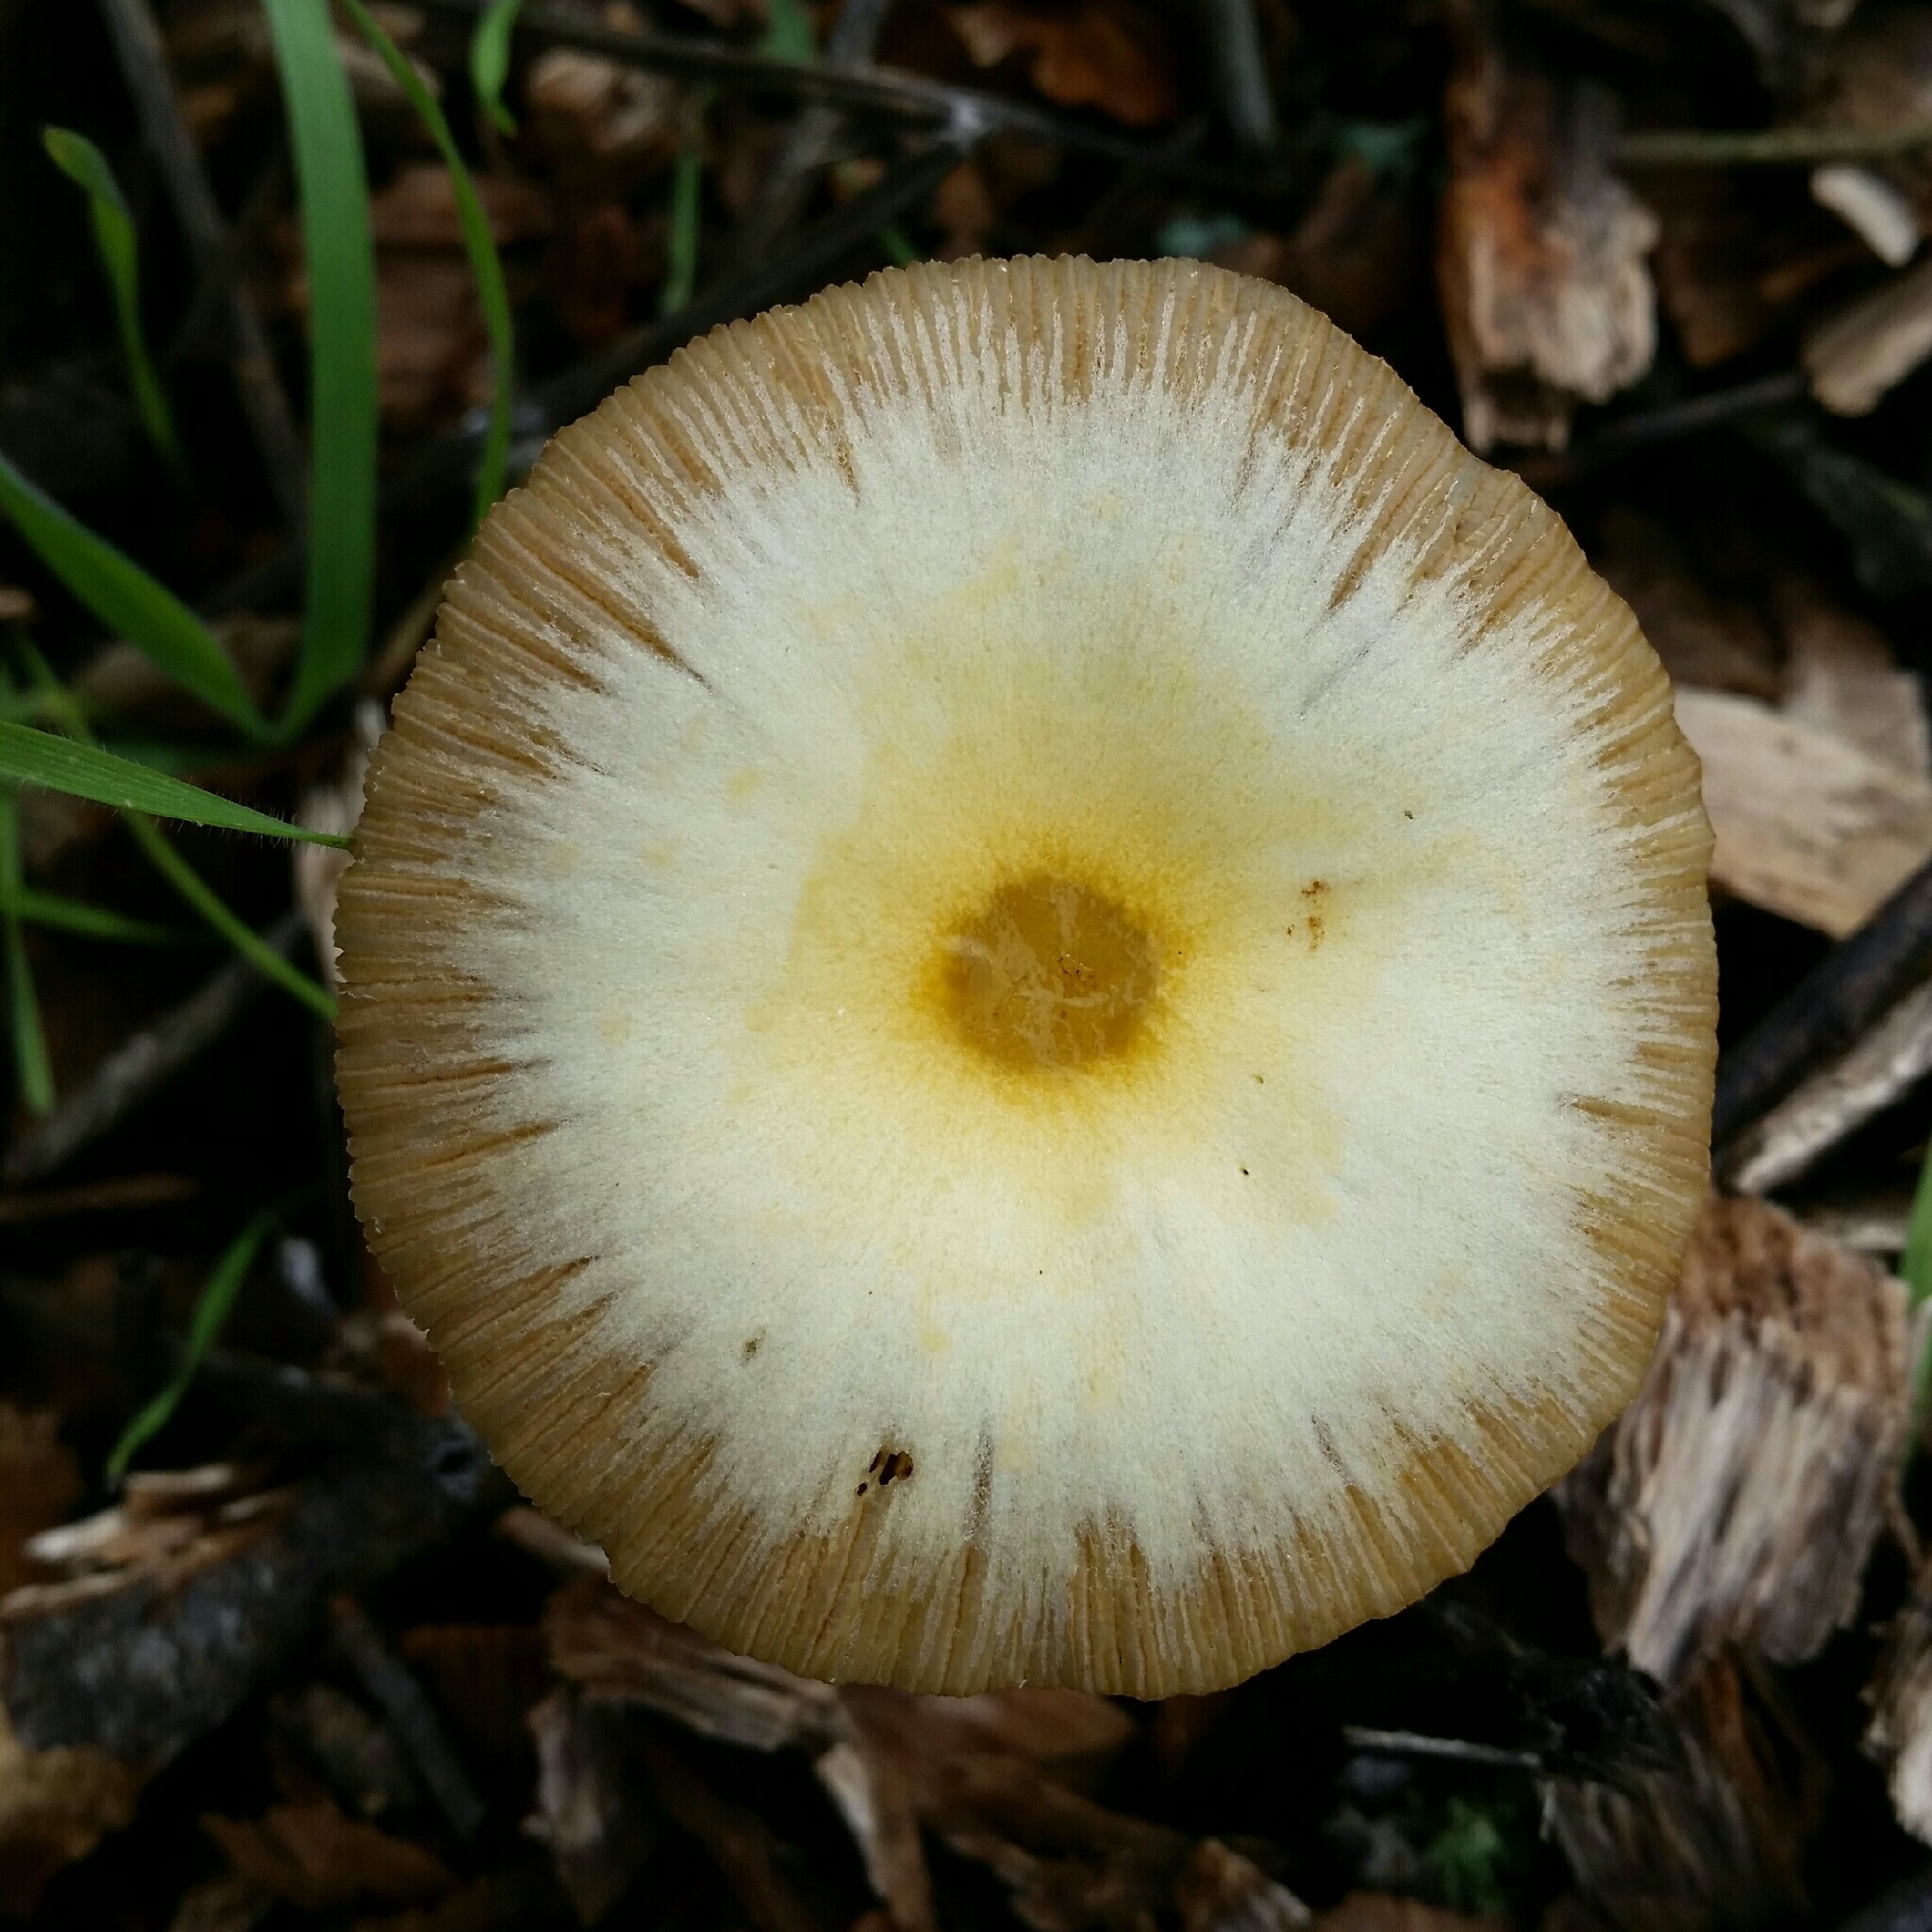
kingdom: Fungi
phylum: Basidiomycota
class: Agaricomycetes
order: Agaricales
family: Bolbitiaceae
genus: Bolbitius
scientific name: Bolbitius titubans
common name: Yellow fieldcap
